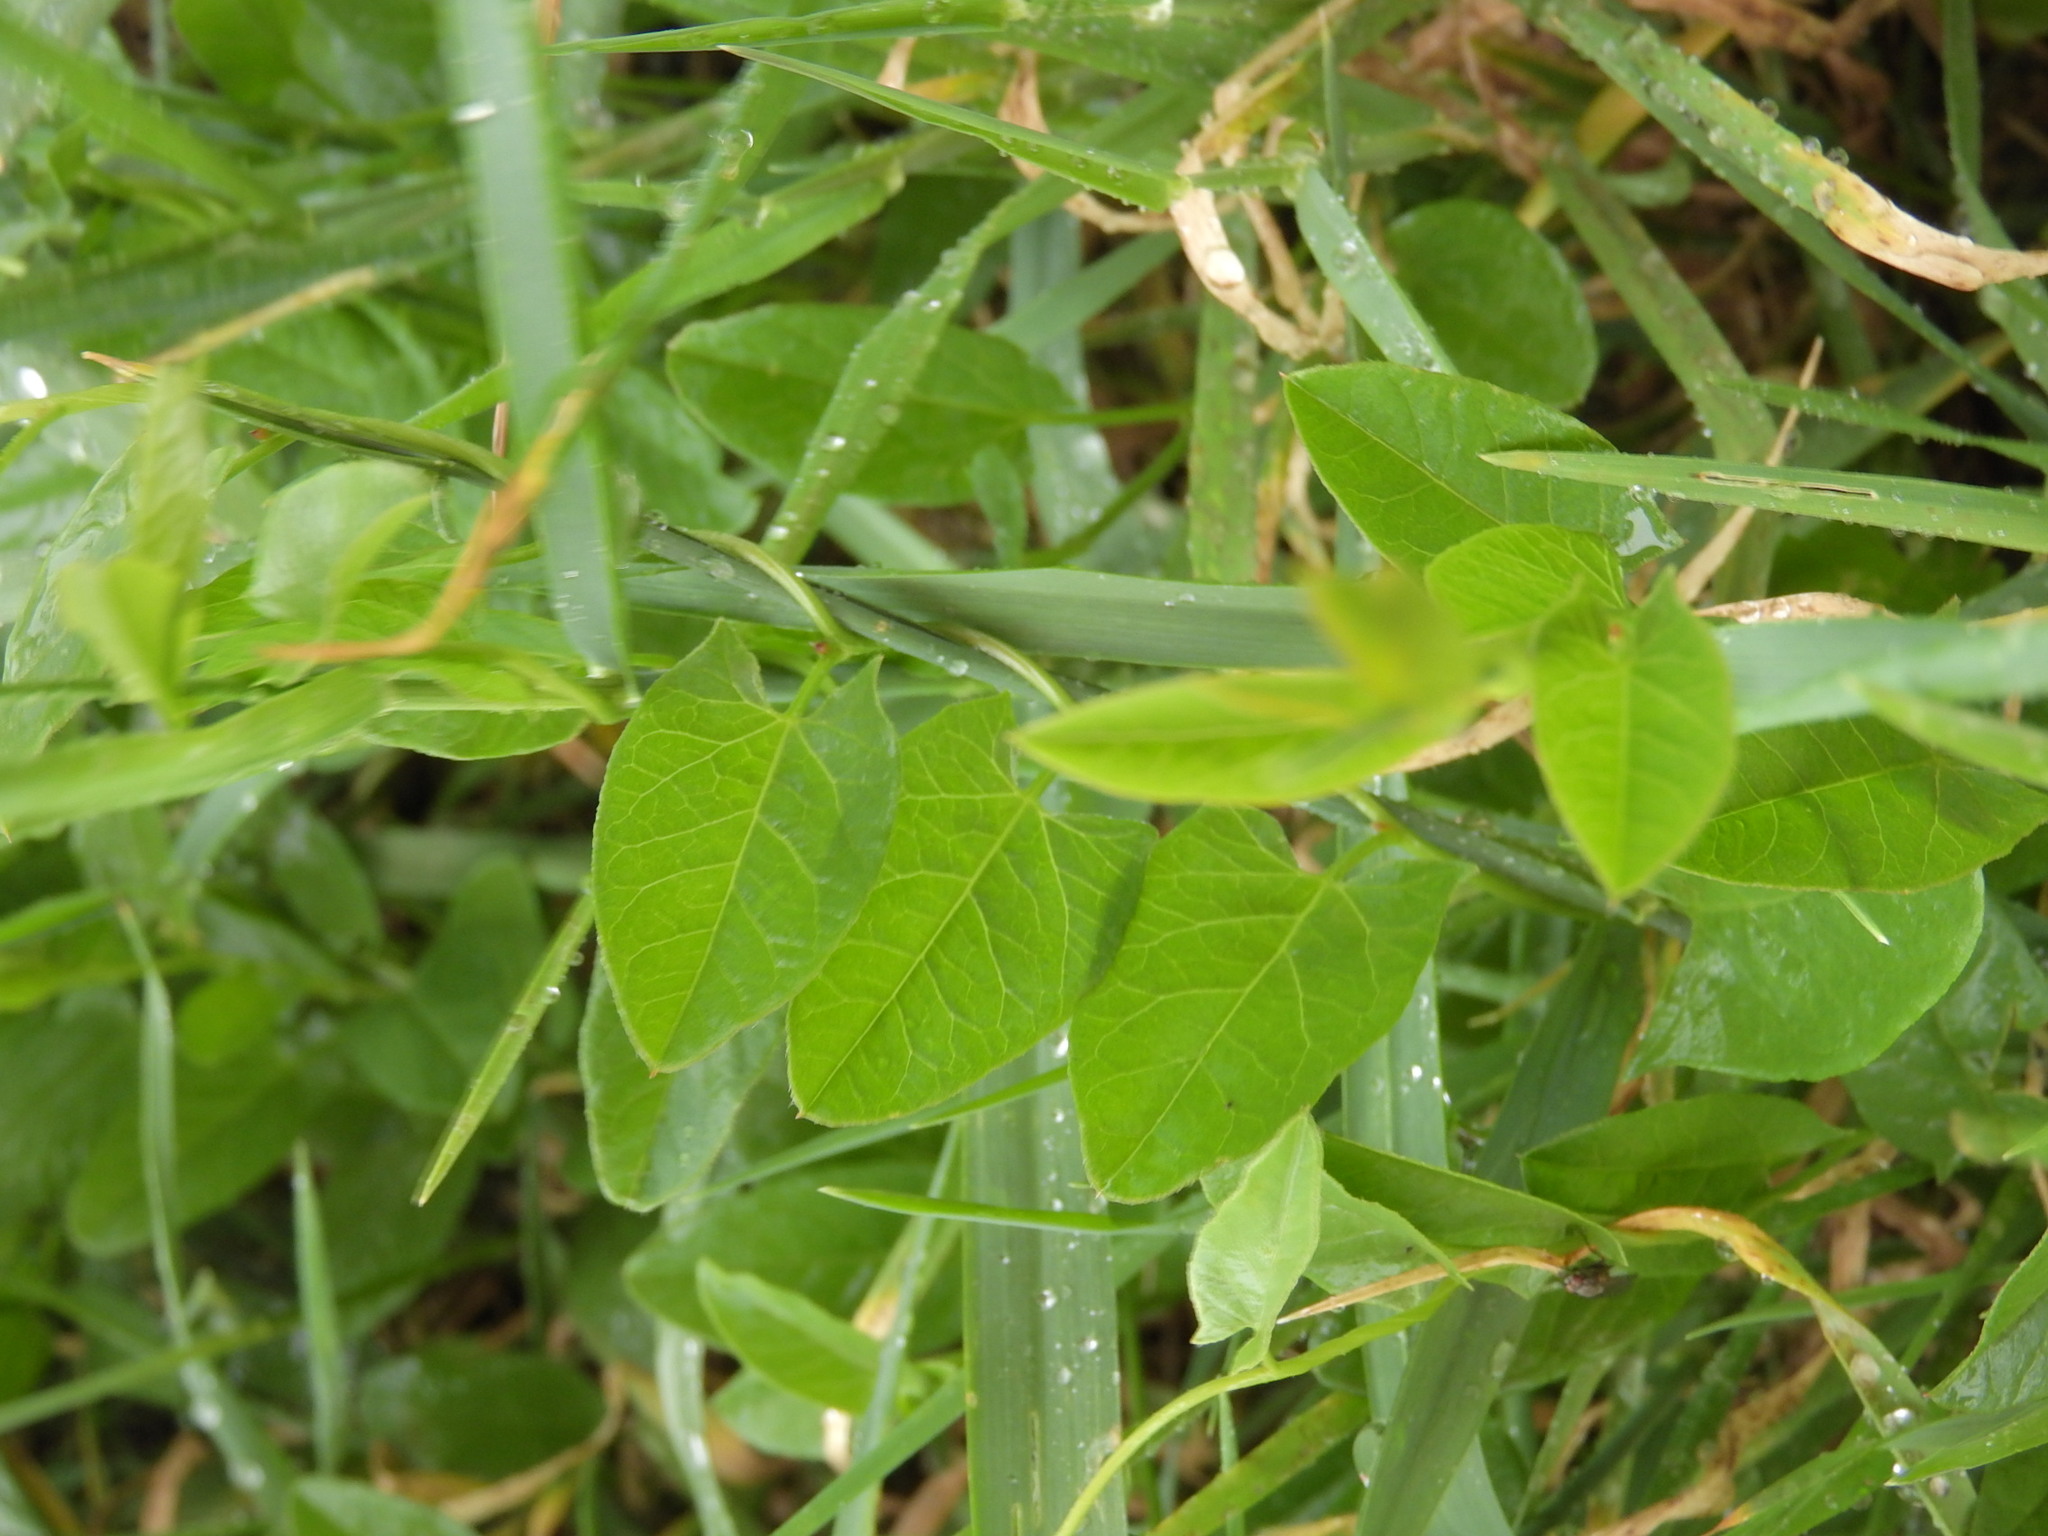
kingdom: Plantae
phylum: Tracheophyta
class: Magnoliopsida
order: Solanales
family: Convolvulaceae
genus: Convolvulus
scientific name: Convolvulus arvensis
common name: Field bindweed
